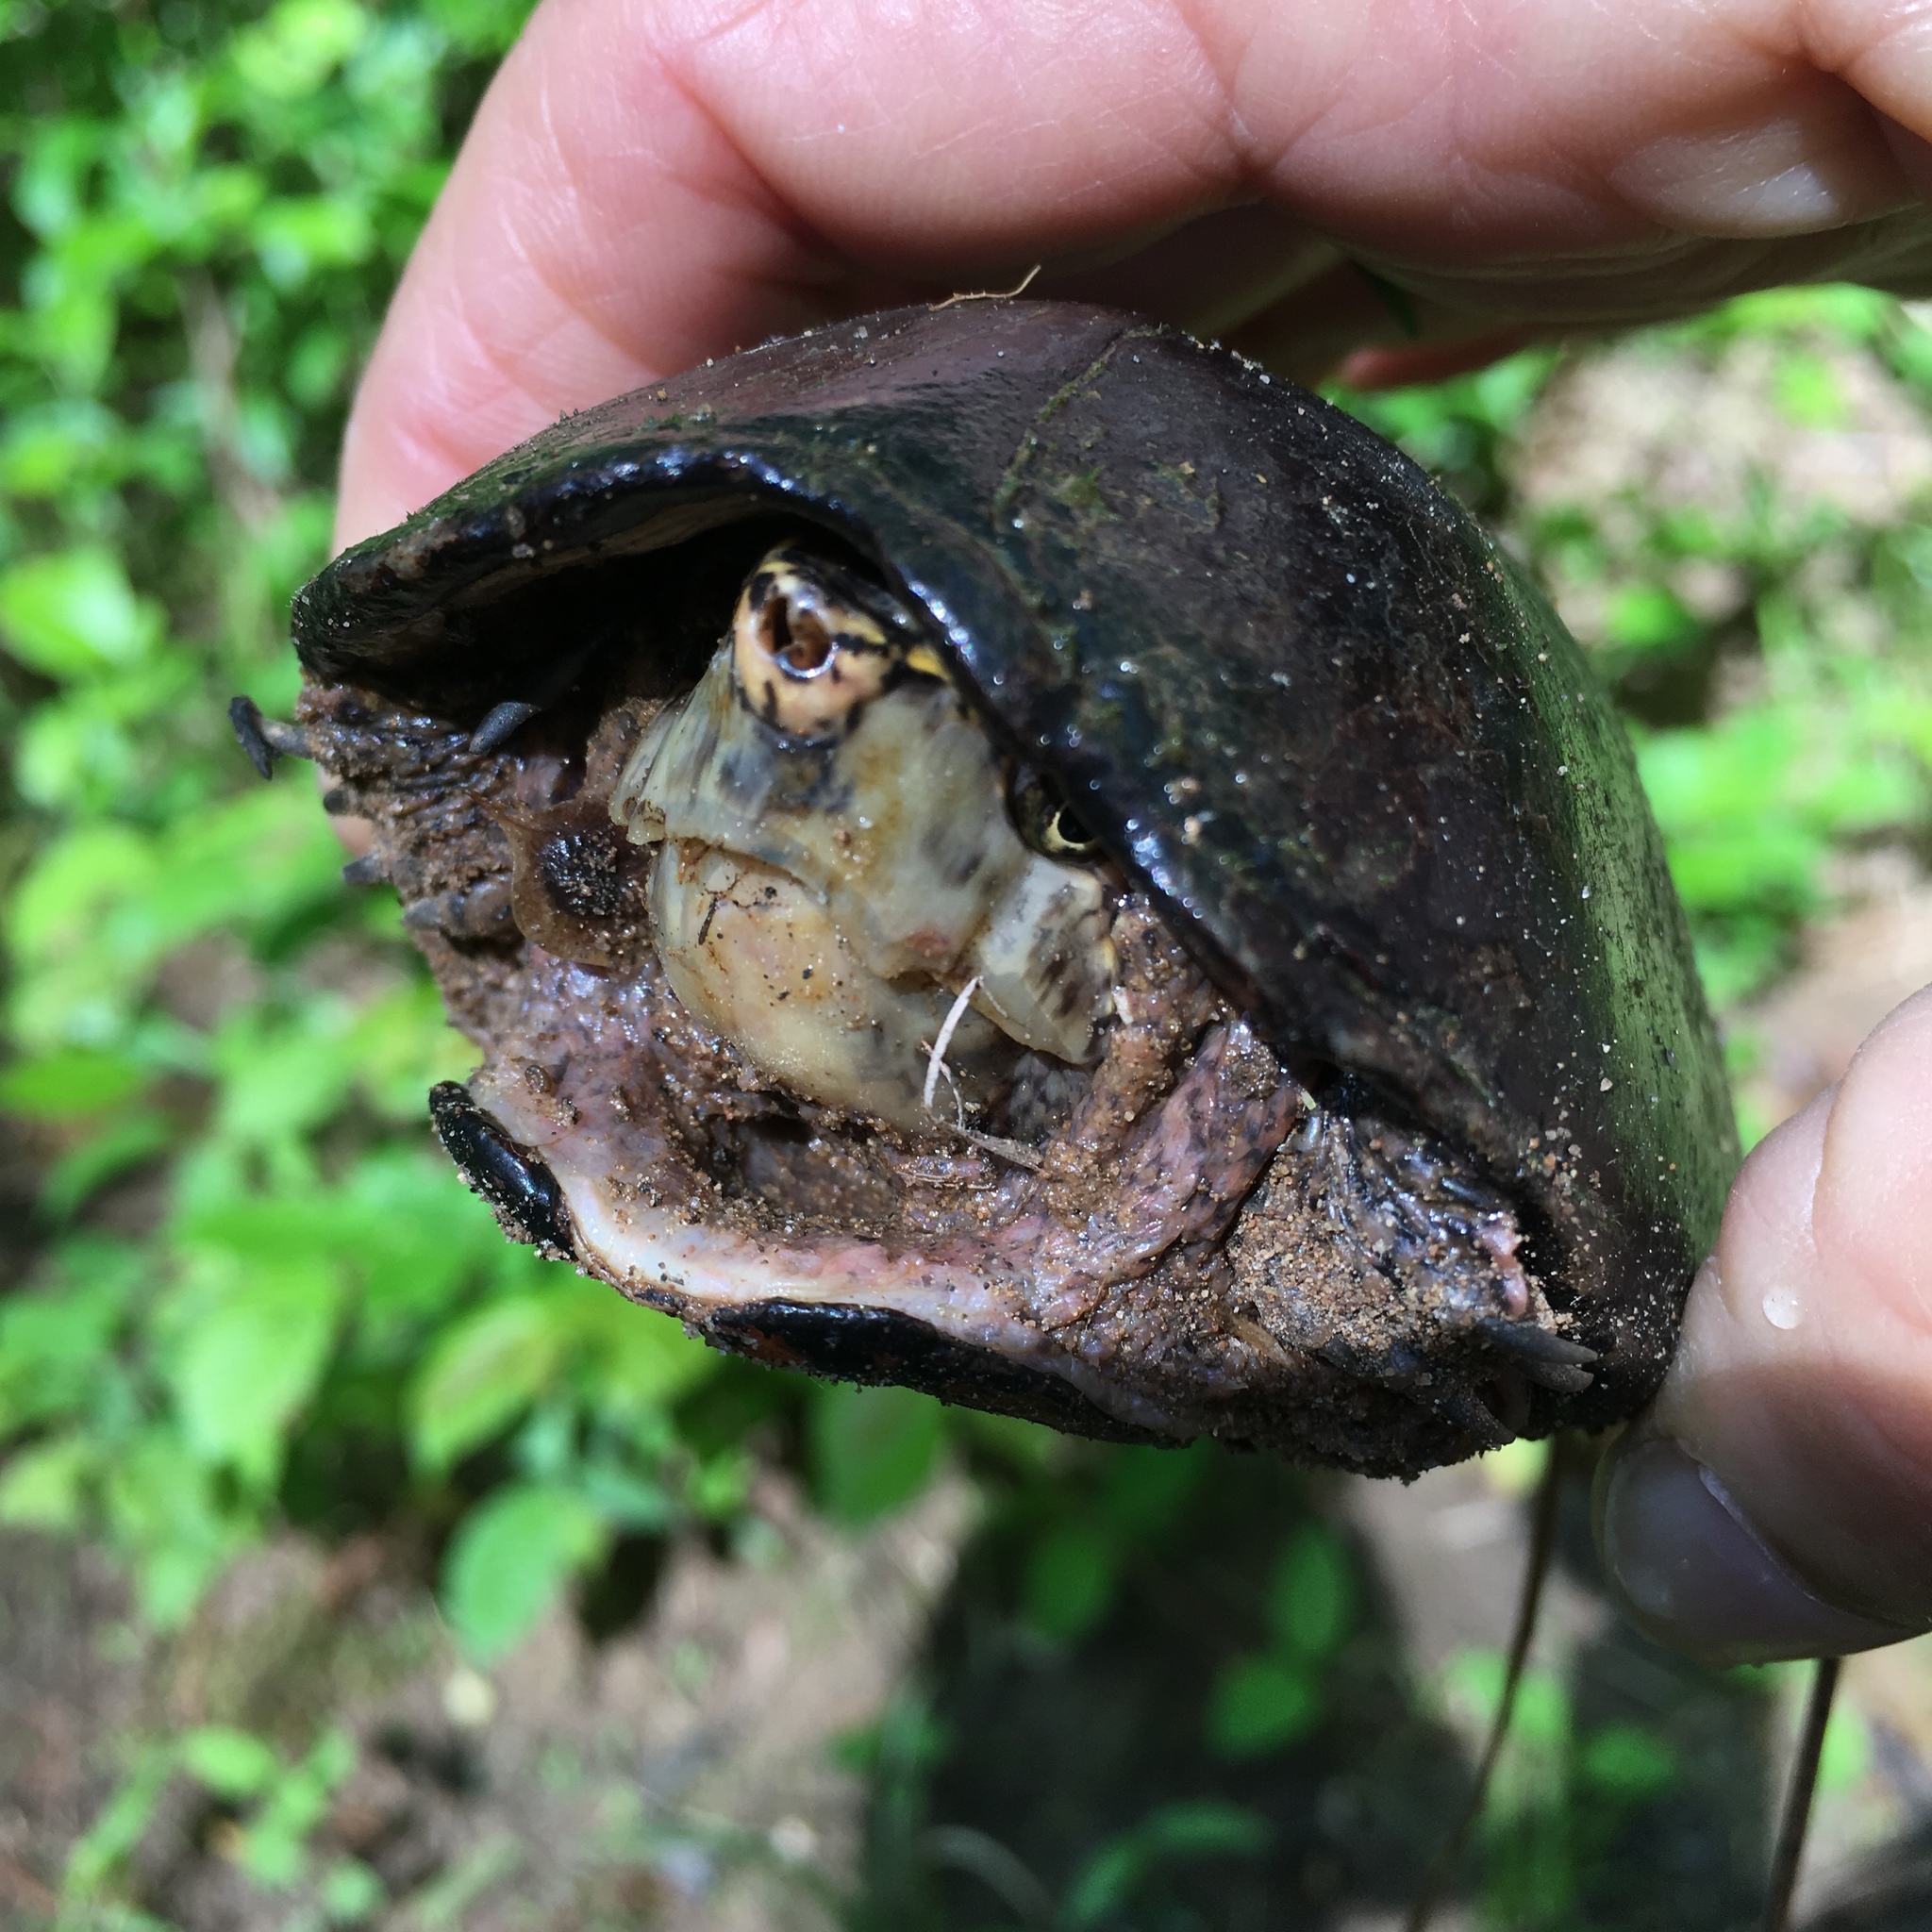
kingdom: Animalia
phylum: Chordata
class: Testudines
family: Kinosternidae
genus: Sternotherus
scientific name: Sternotherus odoratus
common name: Common musk turtle
